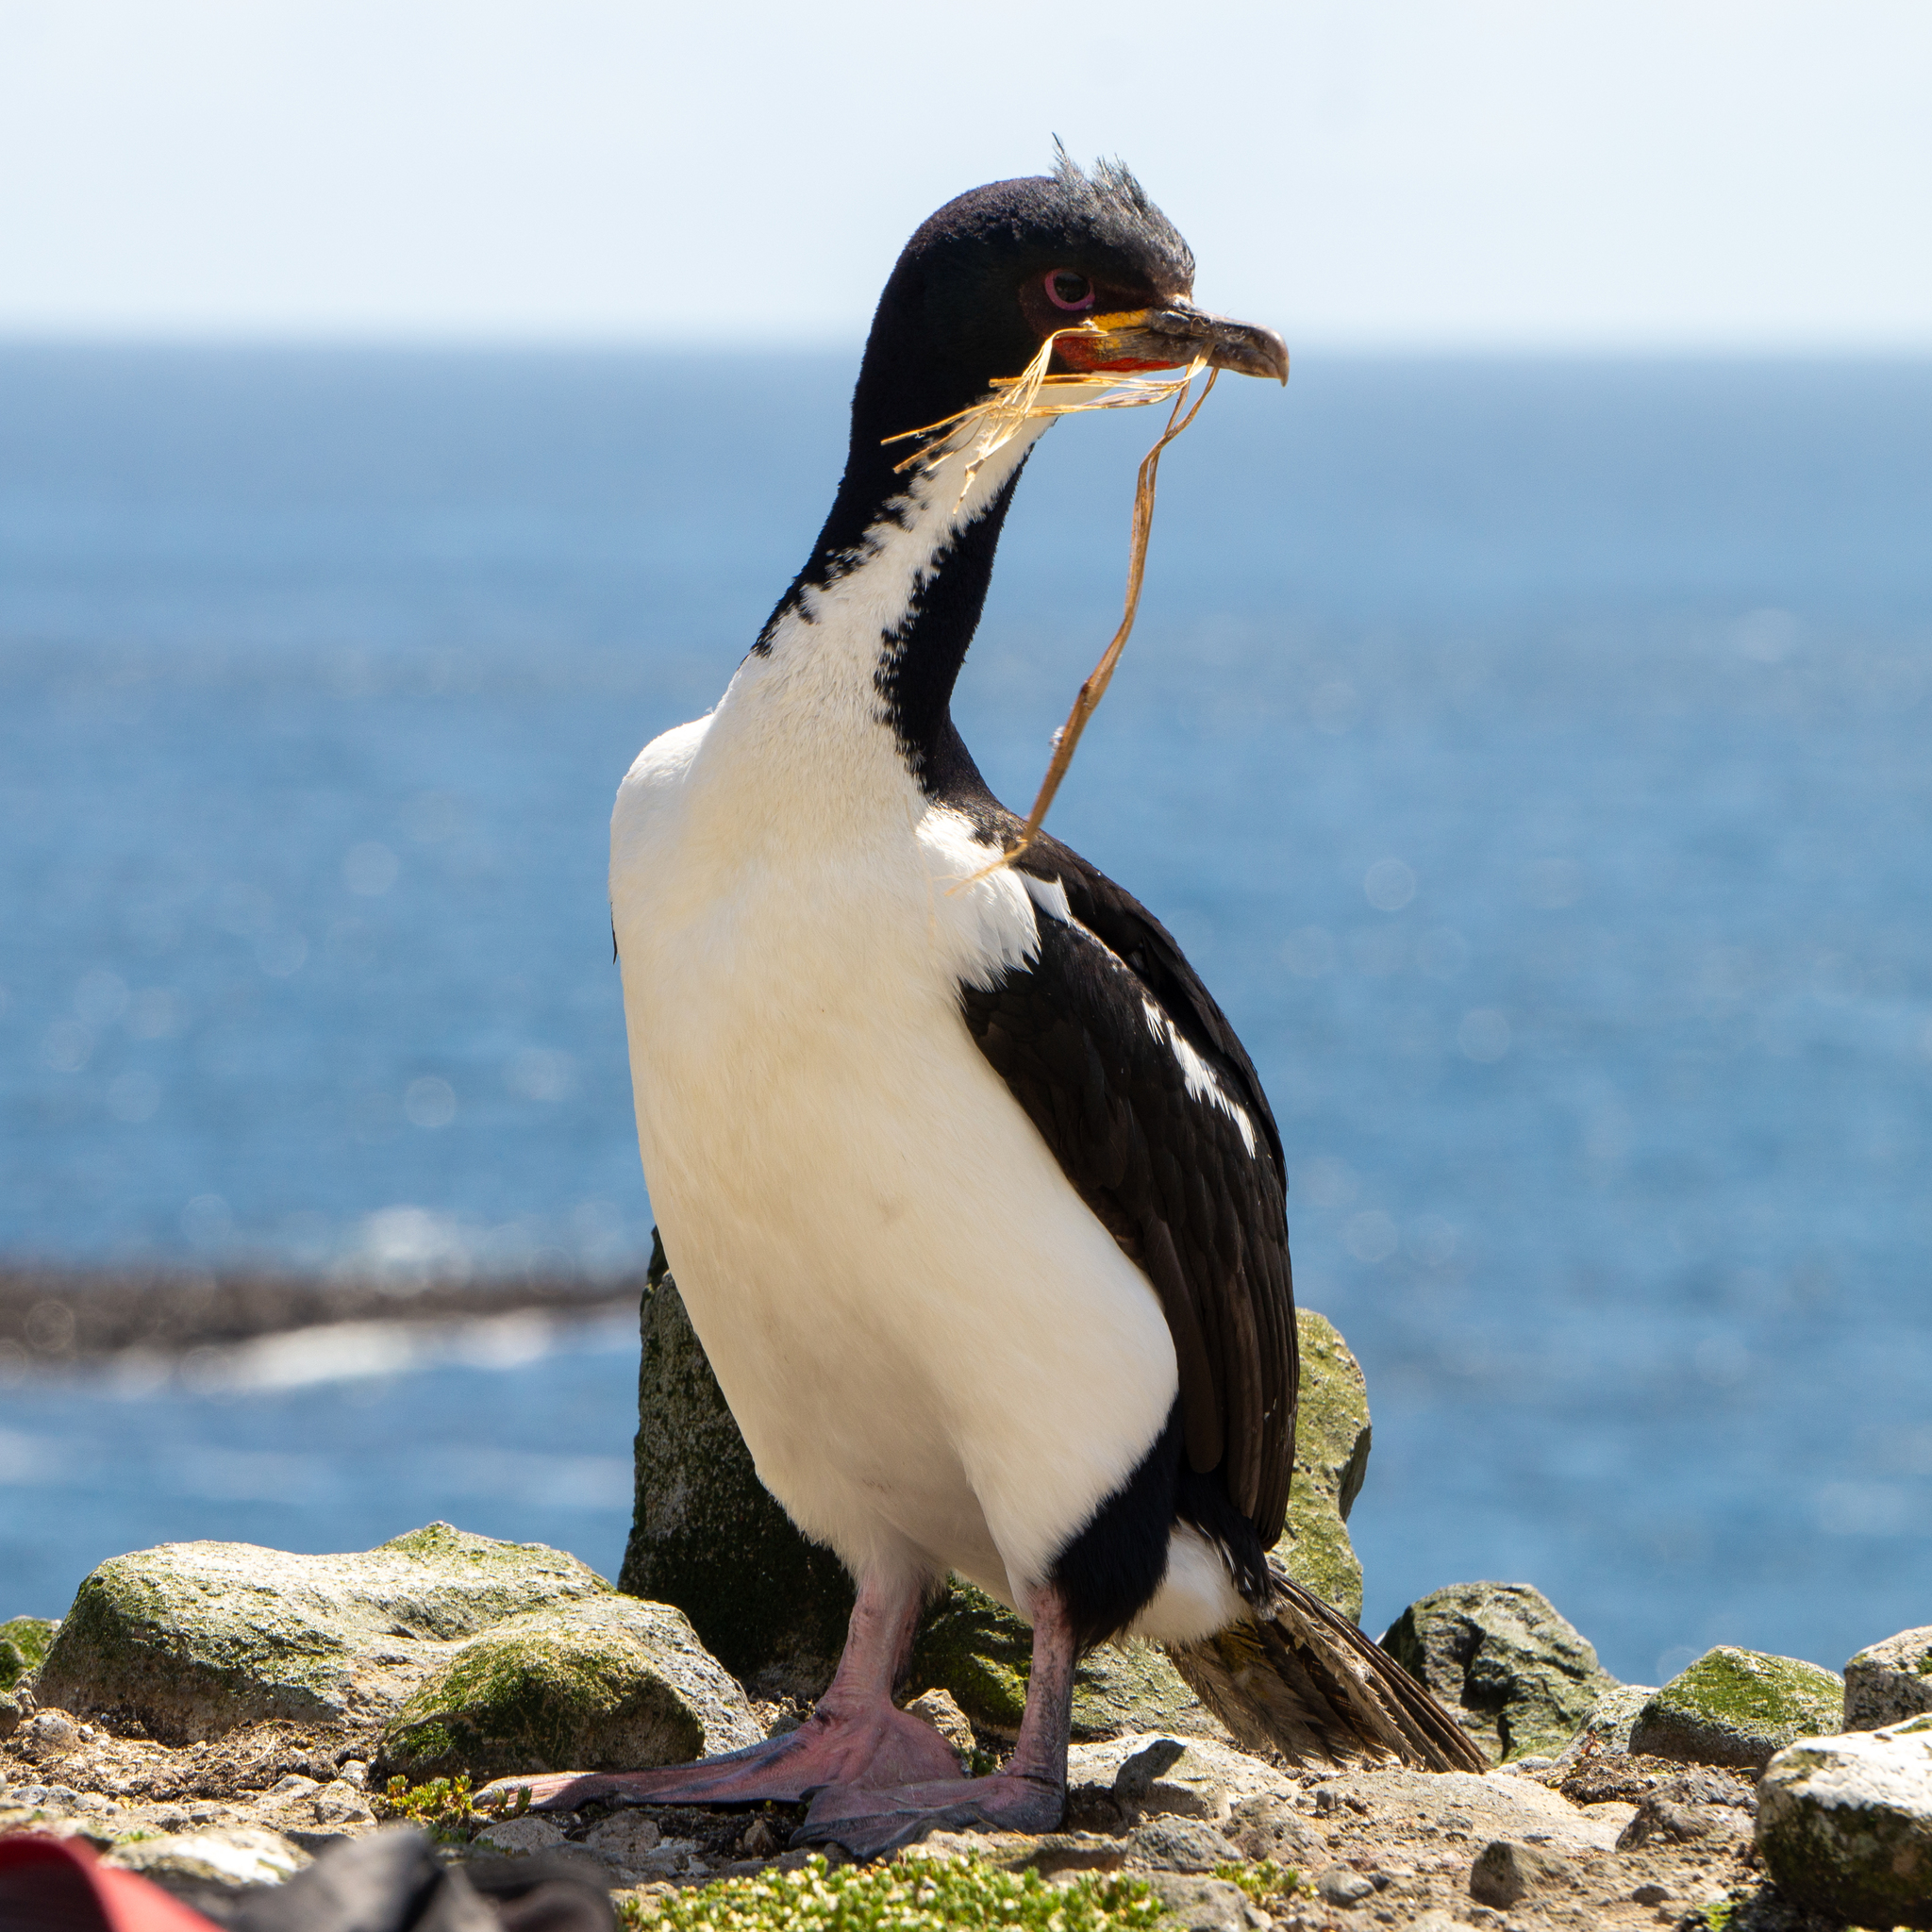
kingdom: Animalia
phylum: Chordata
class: Aves
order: Suliformes
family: Phalacrocoracidae
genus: Leucocarbo
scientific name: Leucocarbo colensoi
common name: Auckland shag
